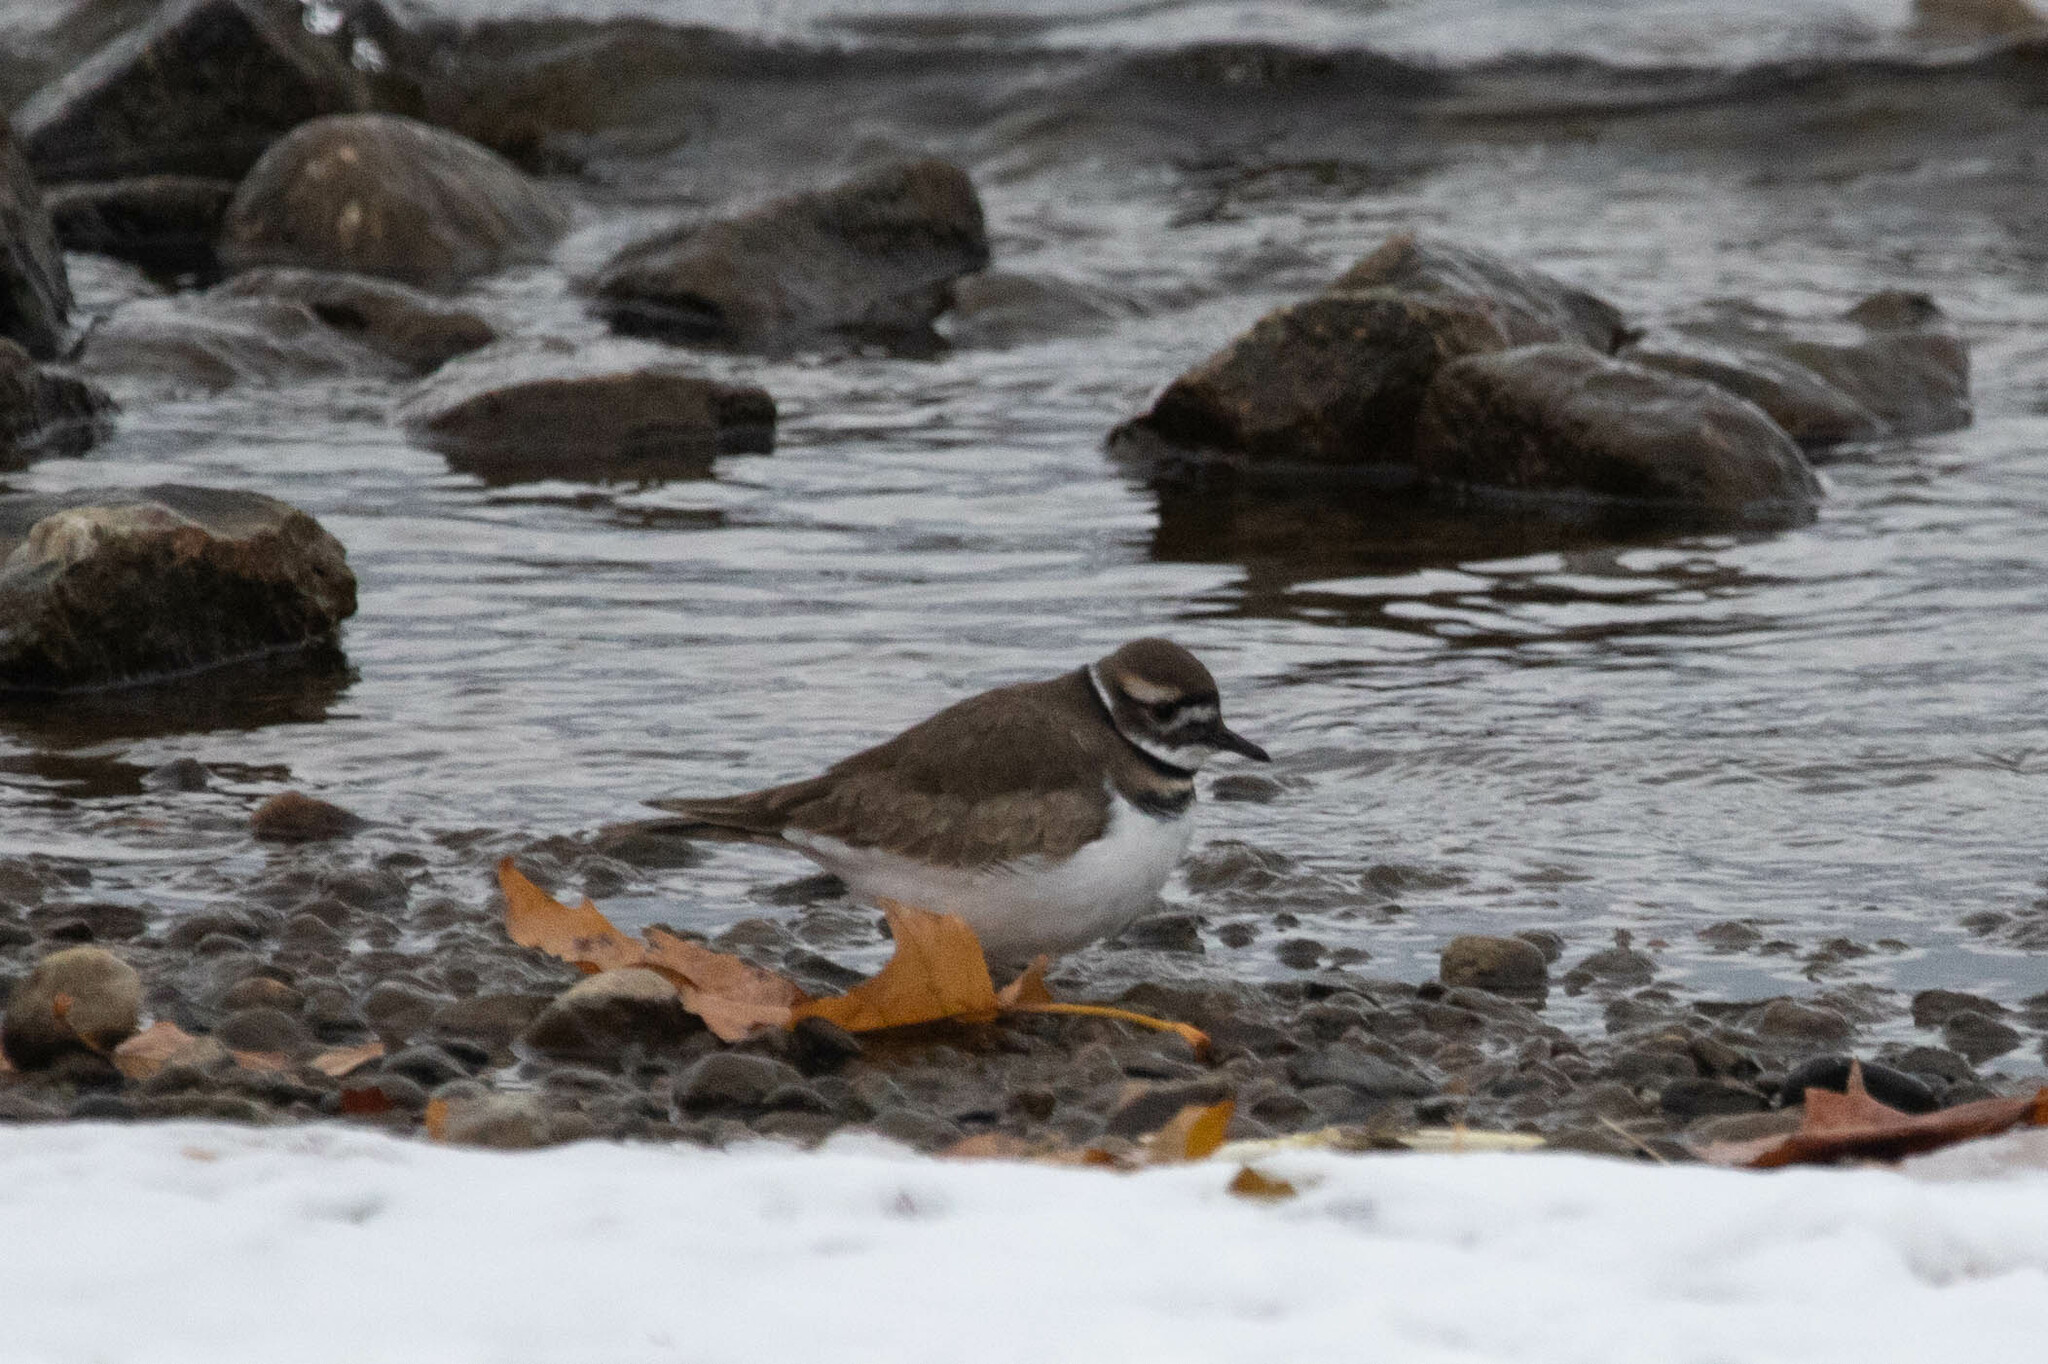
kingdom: Animalia
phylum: Chordata
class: Aves
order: Charadriiformes
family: Charadriidae
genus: Charadrius
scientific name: Charadrius vociferus
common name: Killdeer
